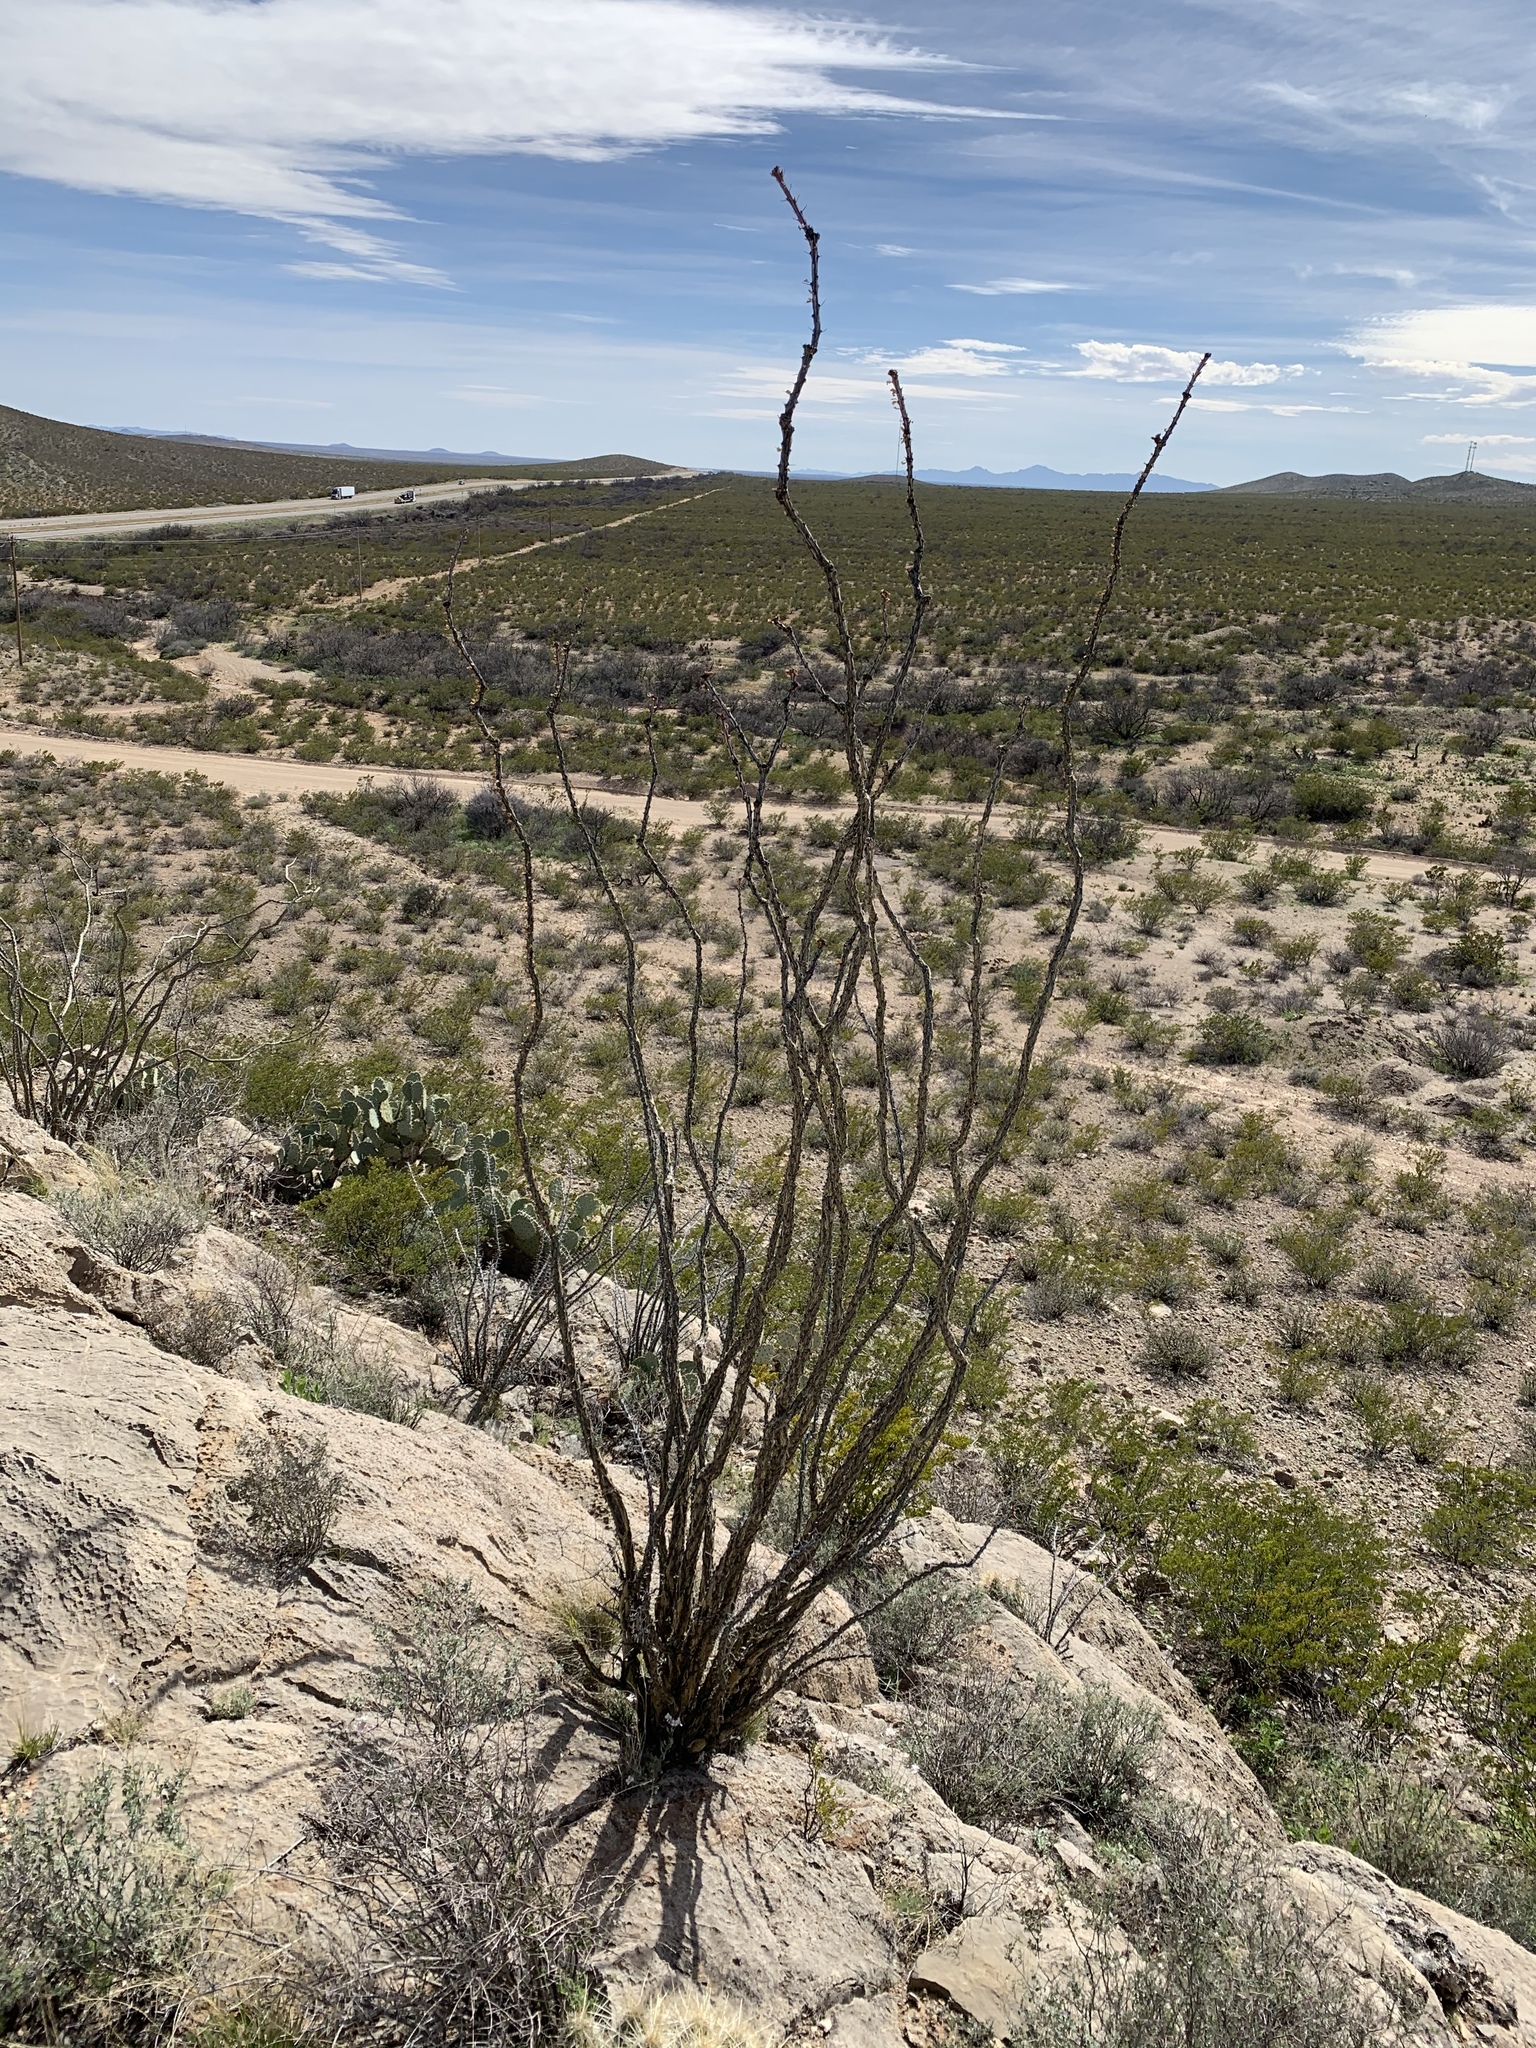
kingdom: Plantae
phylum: Tracheophyta
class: Magnoliopsida
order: Ericales
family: Fouquieriaceae
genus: Fouquieria
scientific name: Fouquieria splendens
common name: Vine-cactus
